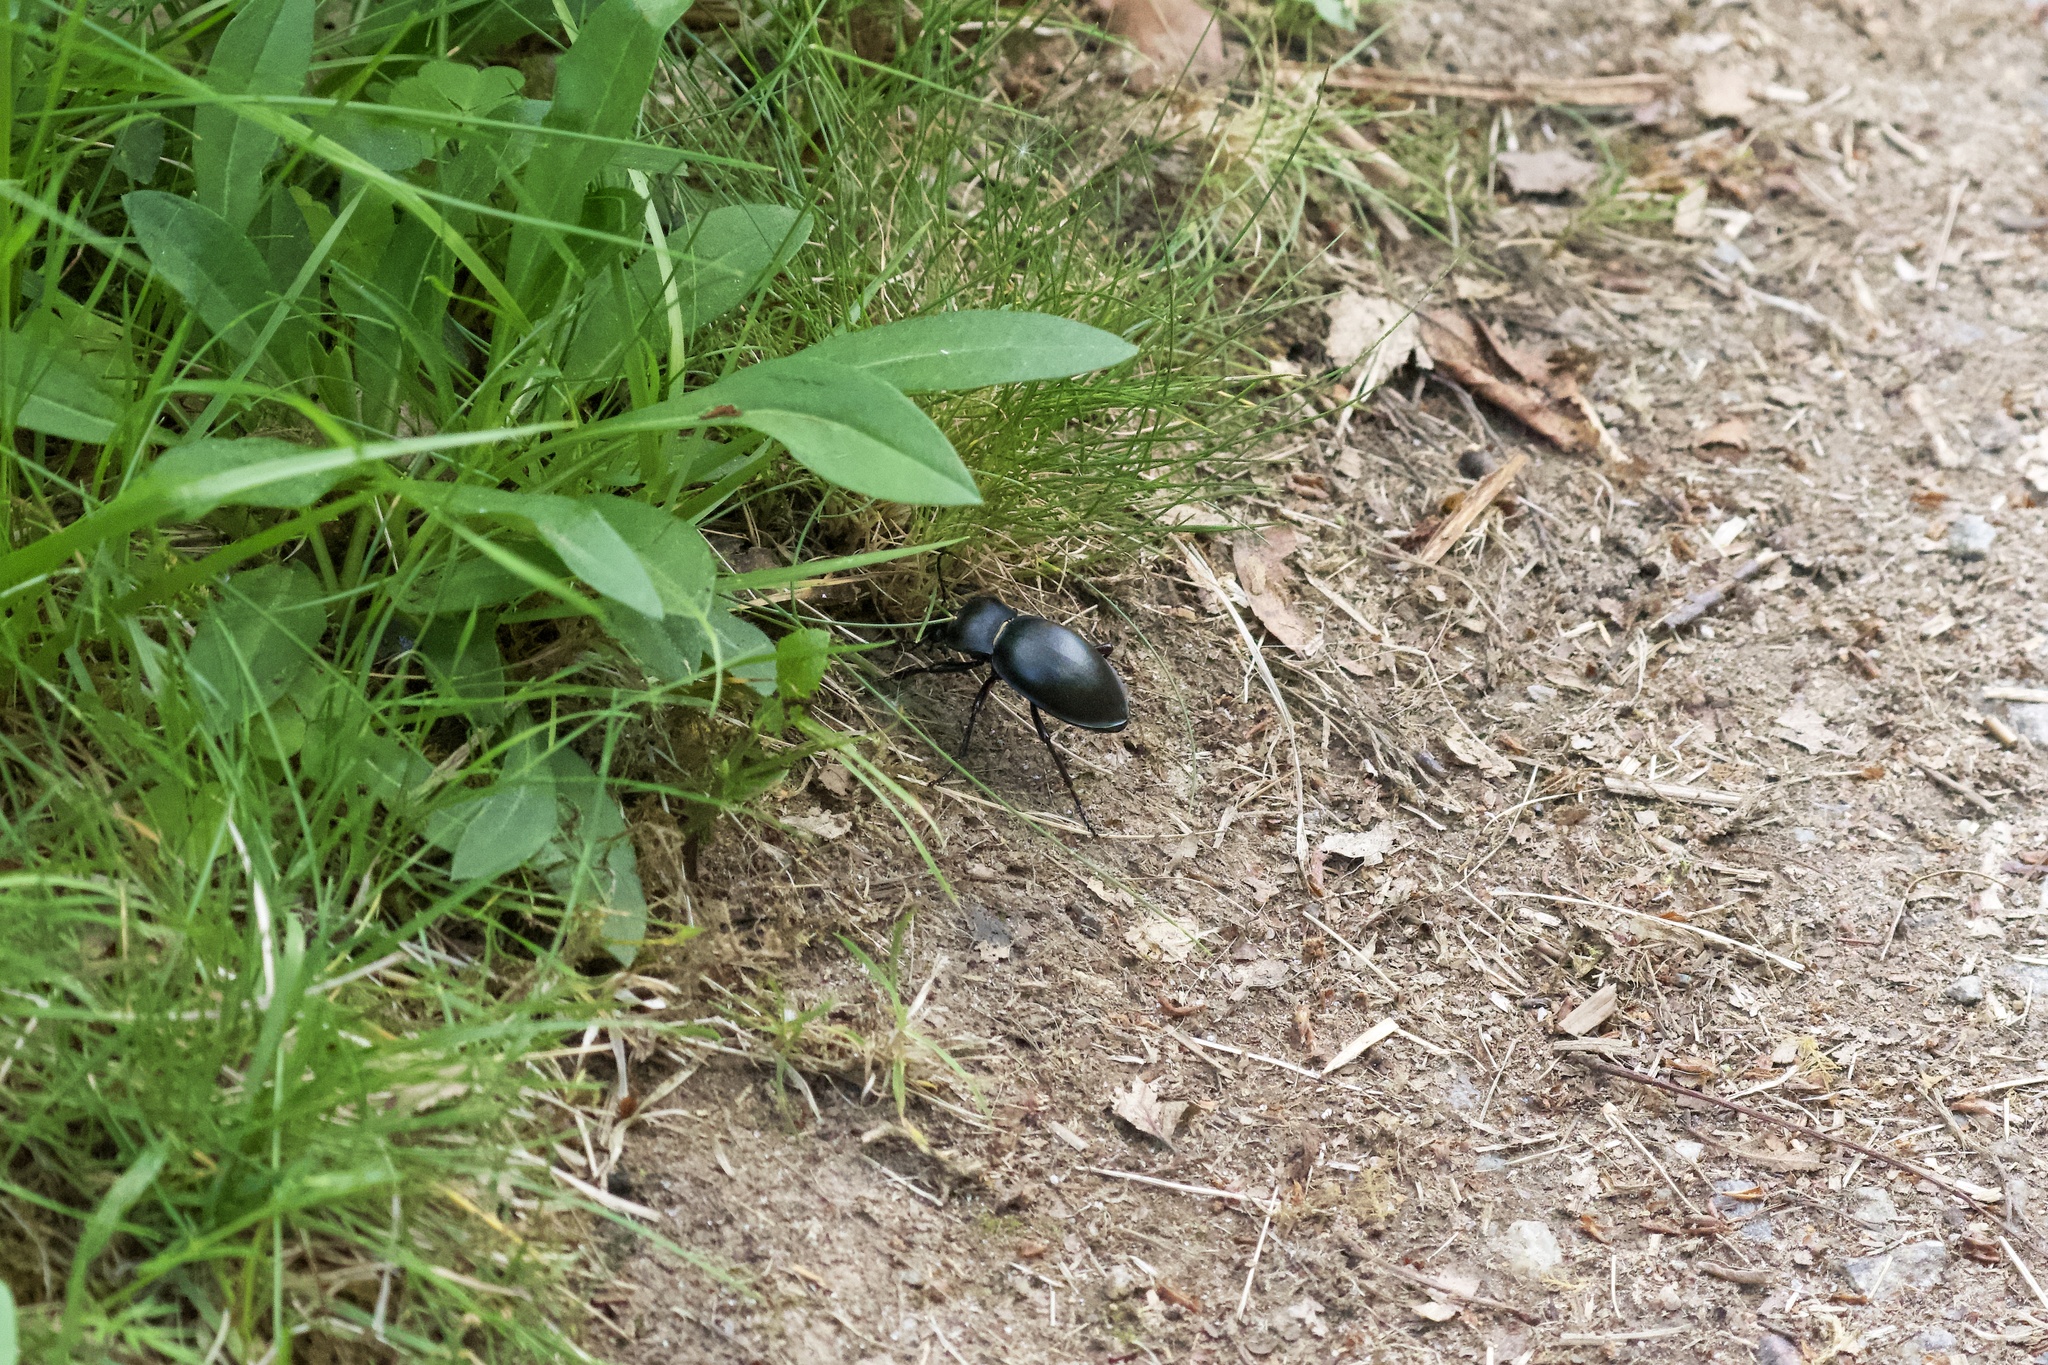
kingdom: Animalia
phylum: Arthropoda
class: Insecta
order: Coleoptera
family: Carabidae
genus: Carabus
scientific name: Carabus glabratus
